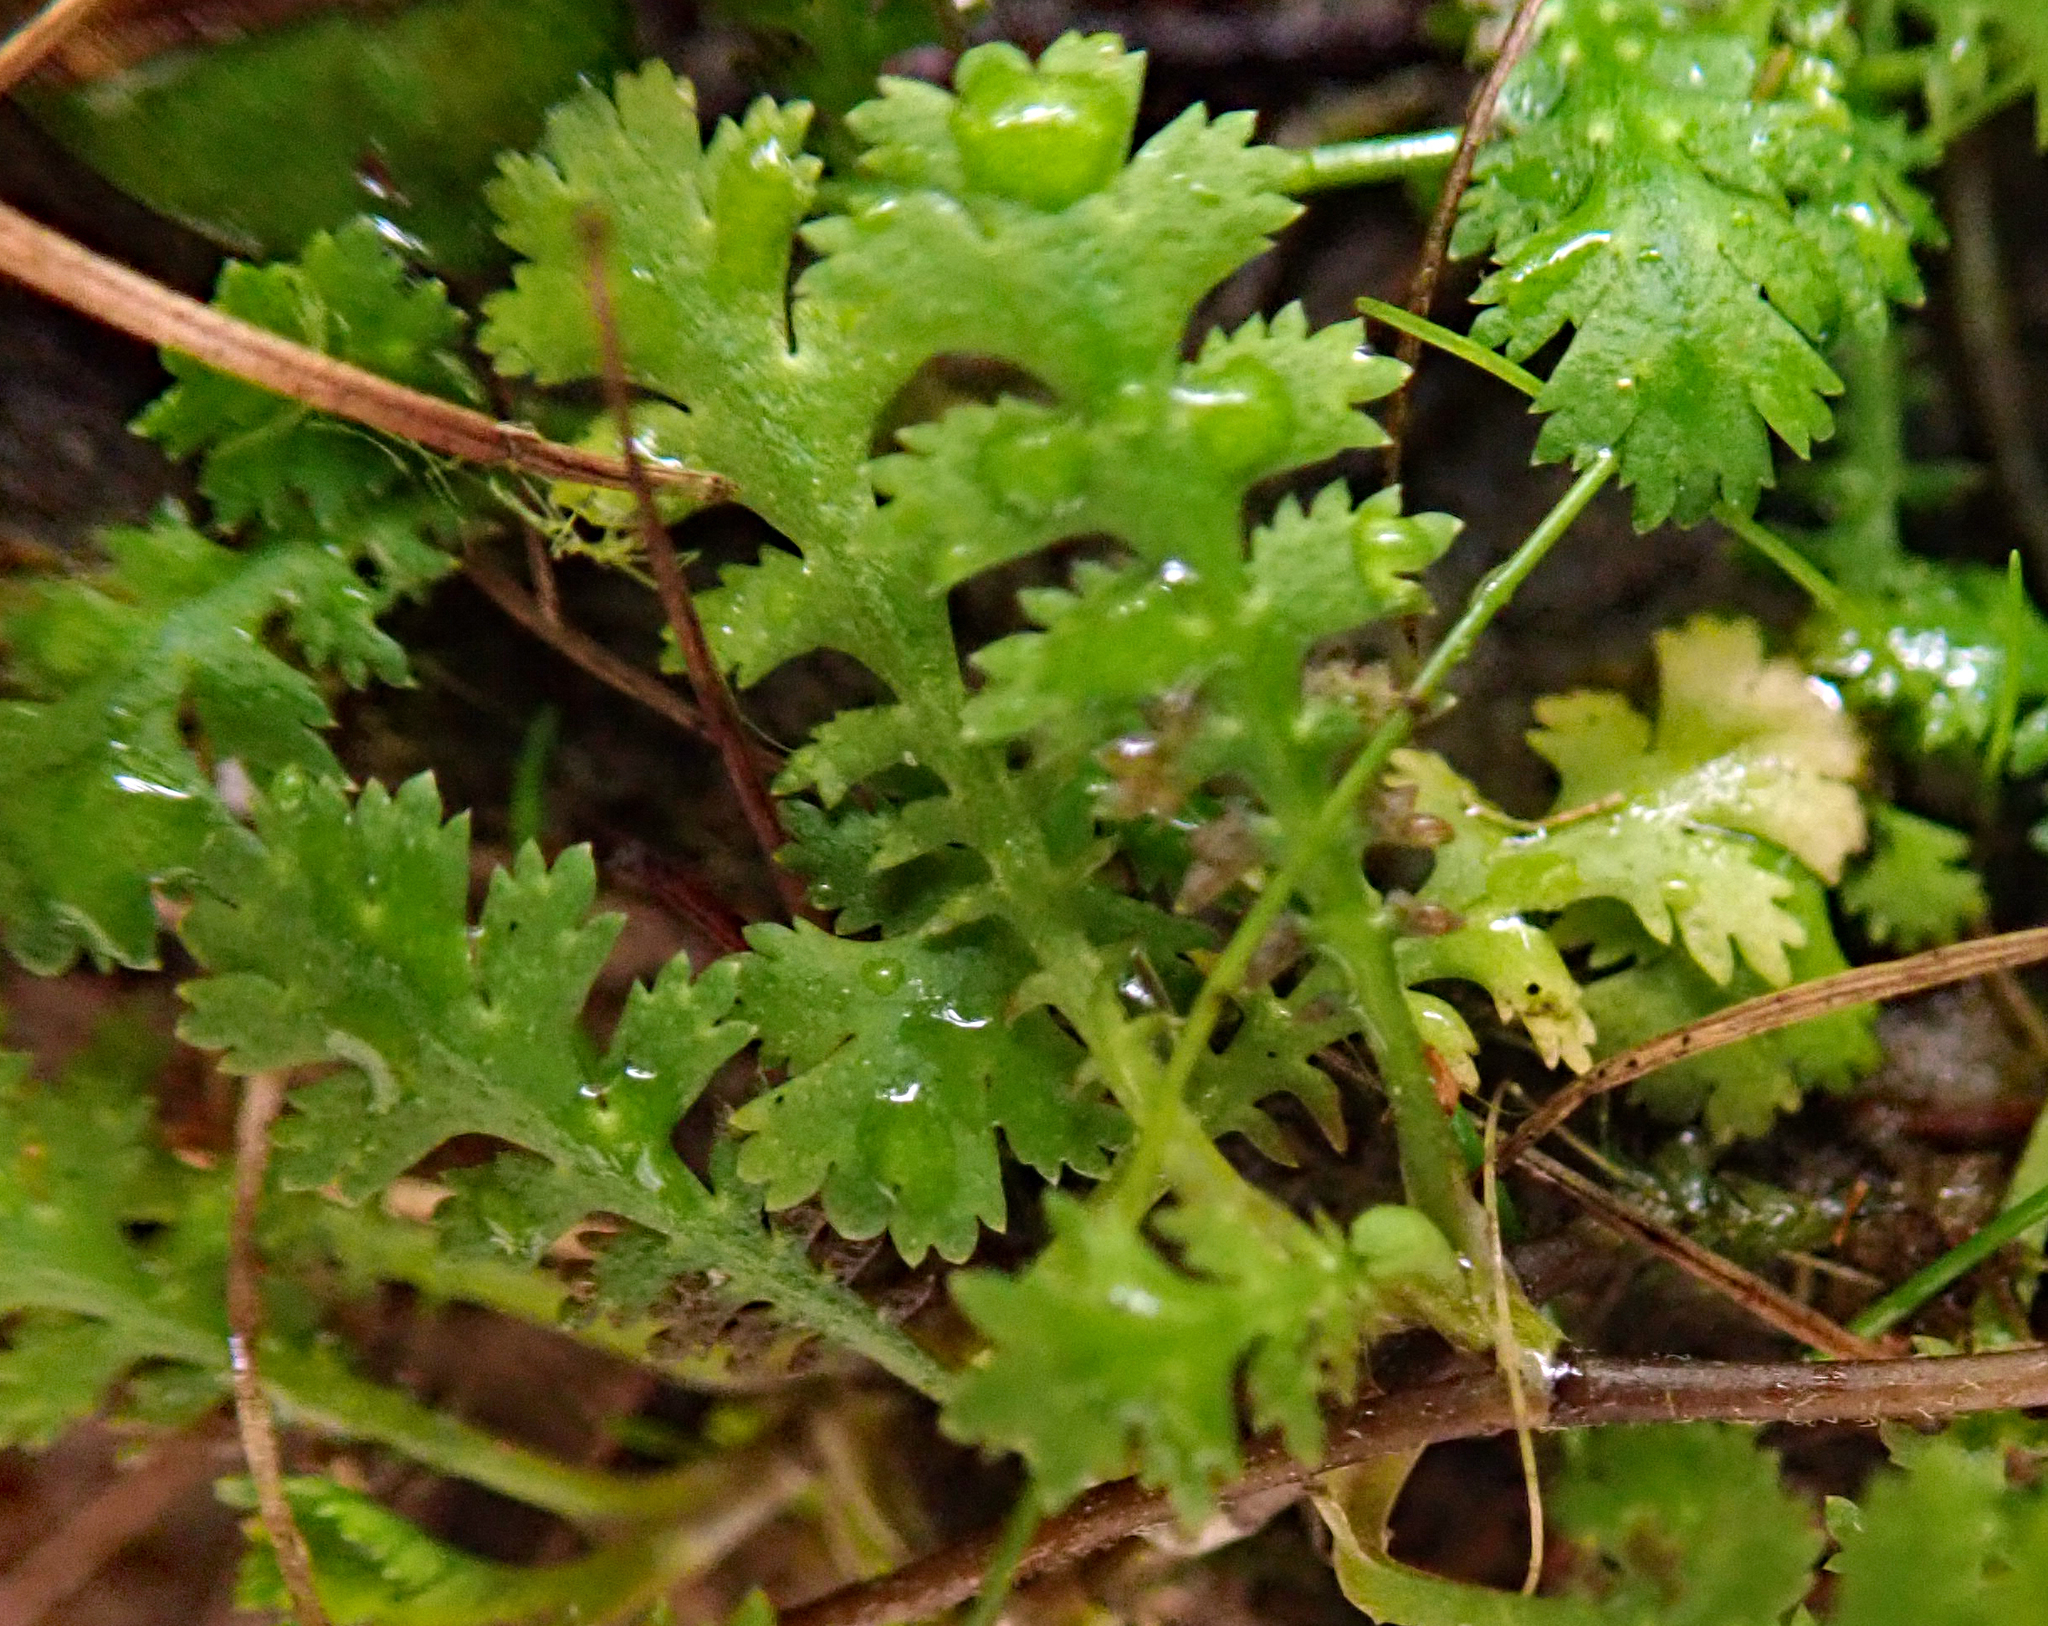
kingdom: Plantae
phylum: Tracheophyta
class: Magnoliopsida
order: Asterales
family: Asteraceae
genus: Leptinella
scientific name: Leptinella tenella
